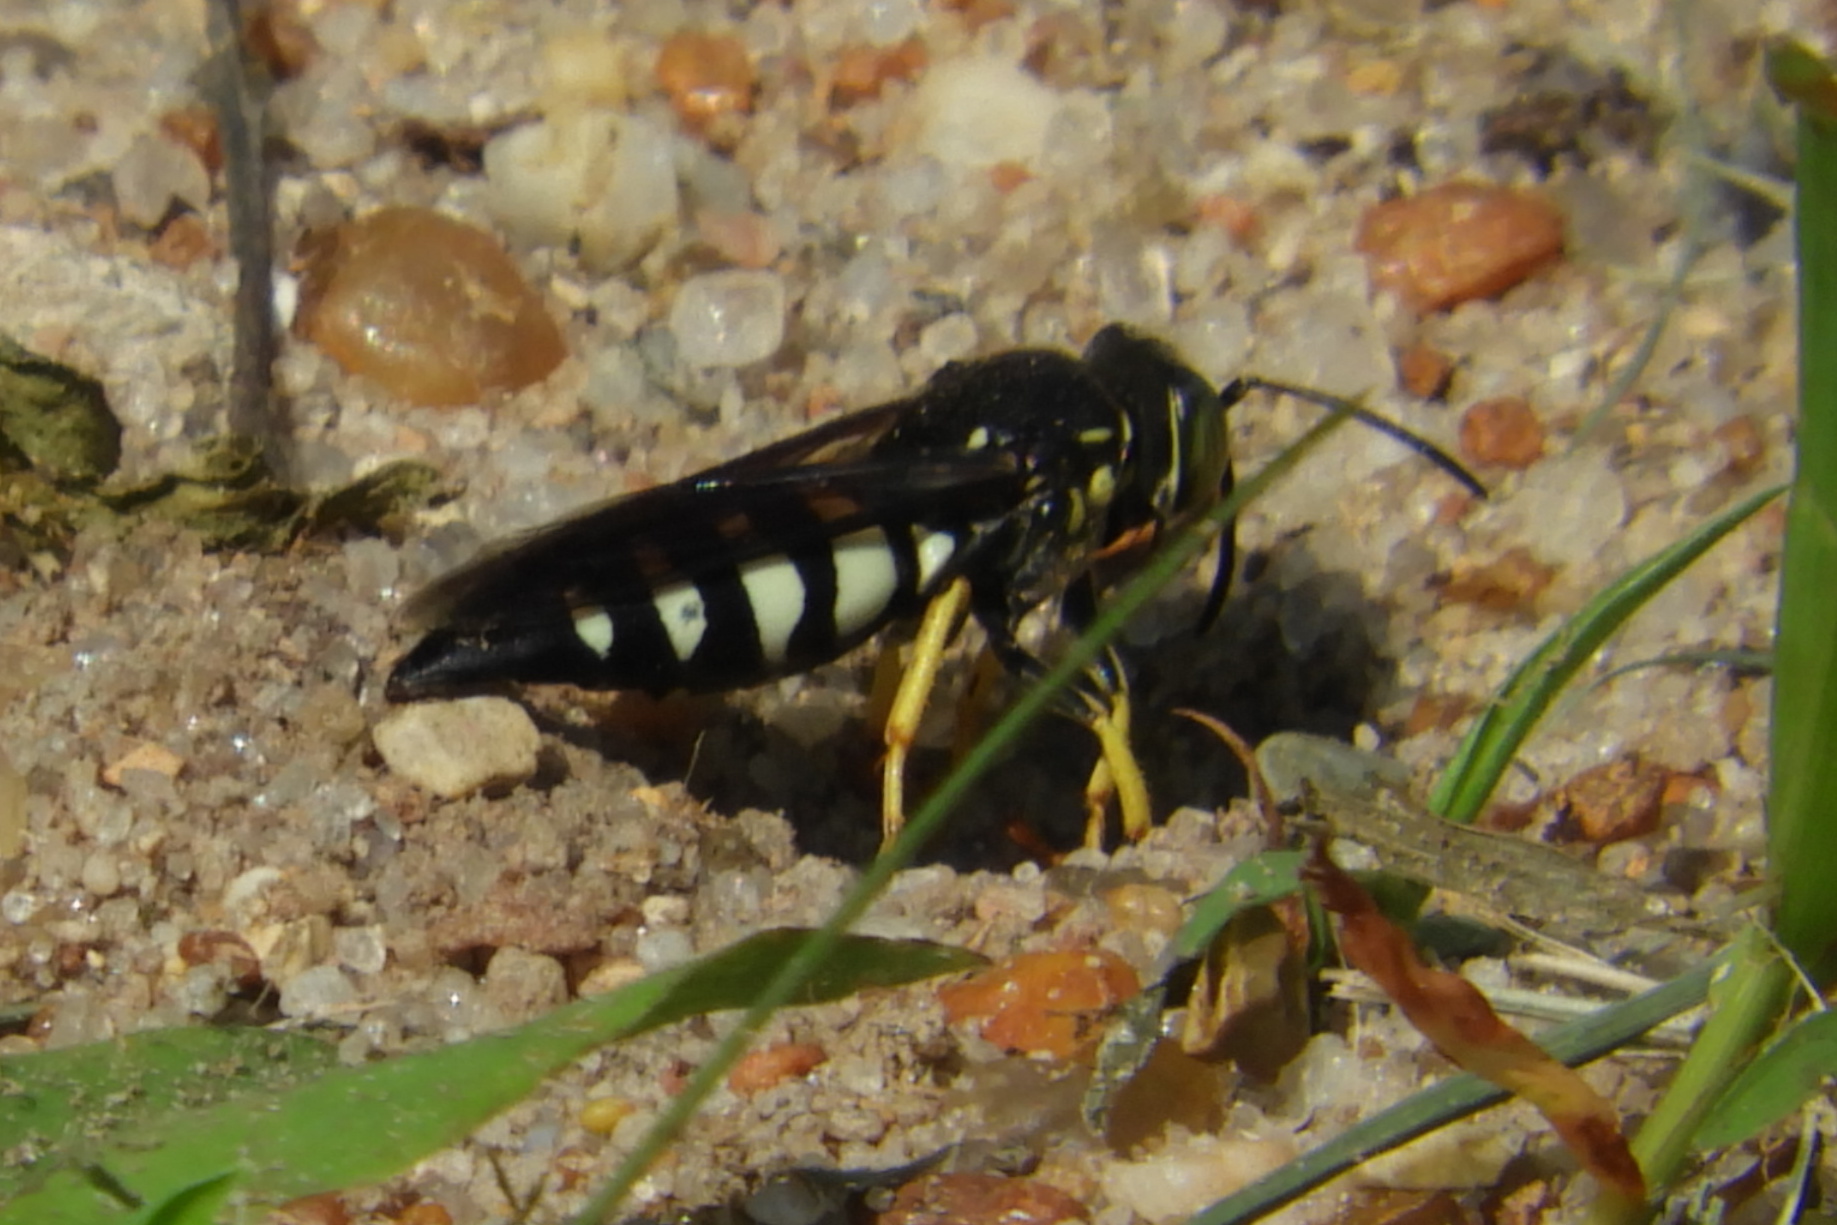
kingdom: Animalia
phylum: Arthropoda
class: Insecta
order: Hymenoptera
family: Crabronidae
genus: Bicyrtes
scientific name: Bicyrtes quadrifasciatus
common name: Four-banded stink bug hunter wasp
